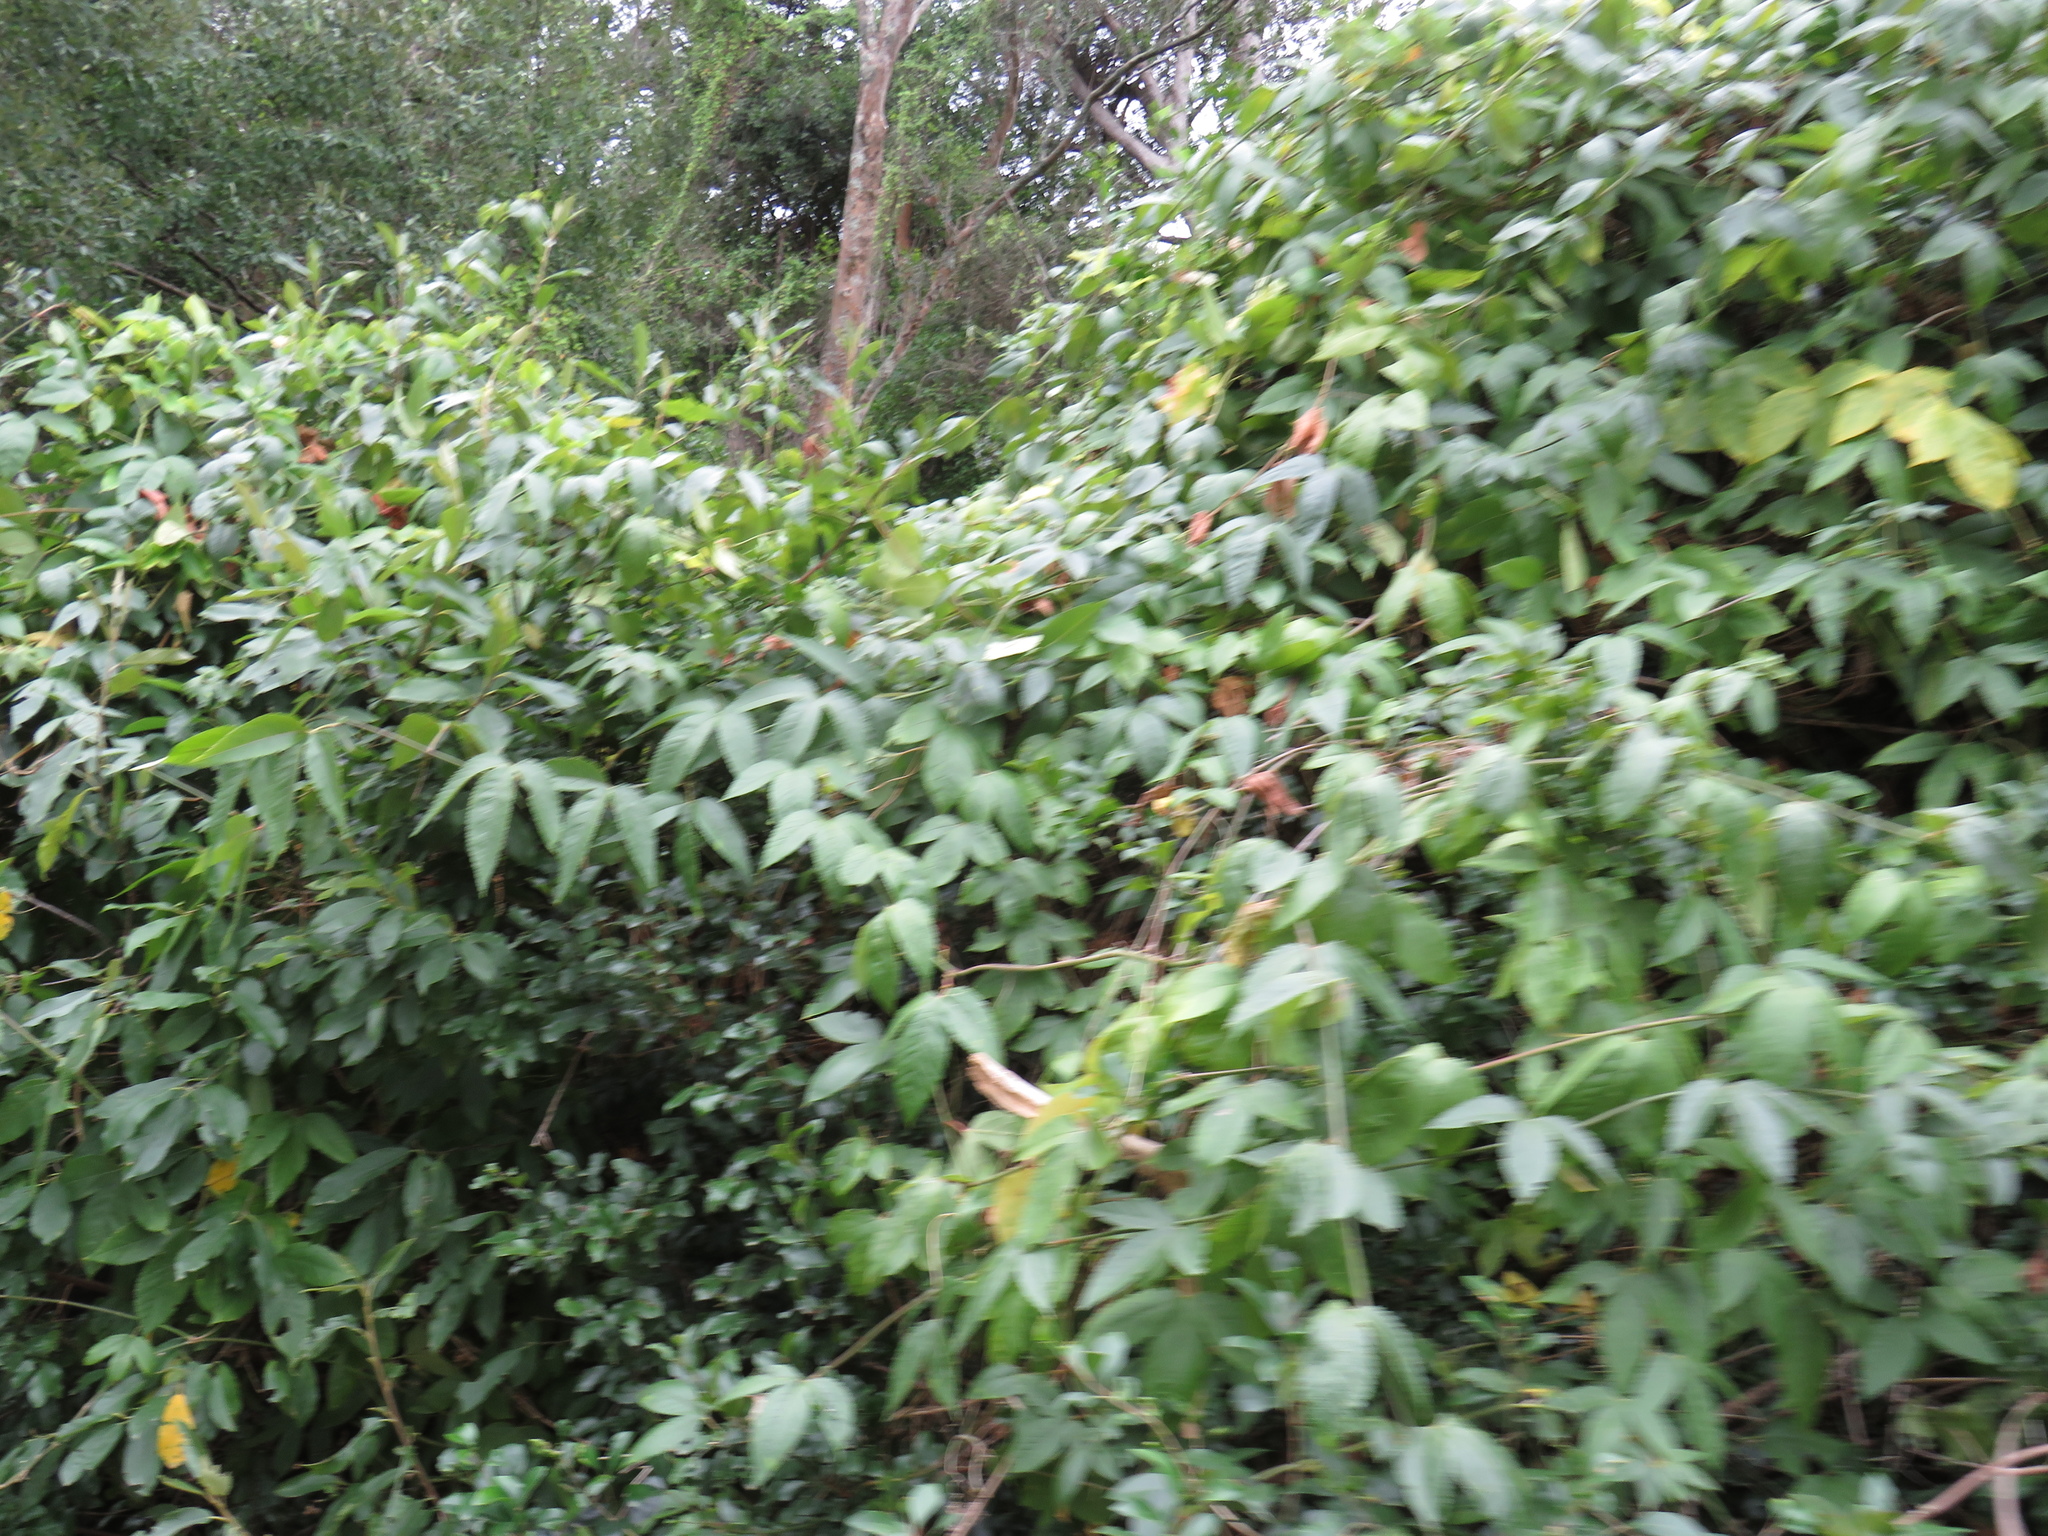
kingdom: Plantae
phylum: Tracheophyta
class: Magnoliopsida
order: Malpighiales
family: Passifloraceae
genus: Passiflora
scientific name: Passiflora tarminiana
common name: Banana poka
